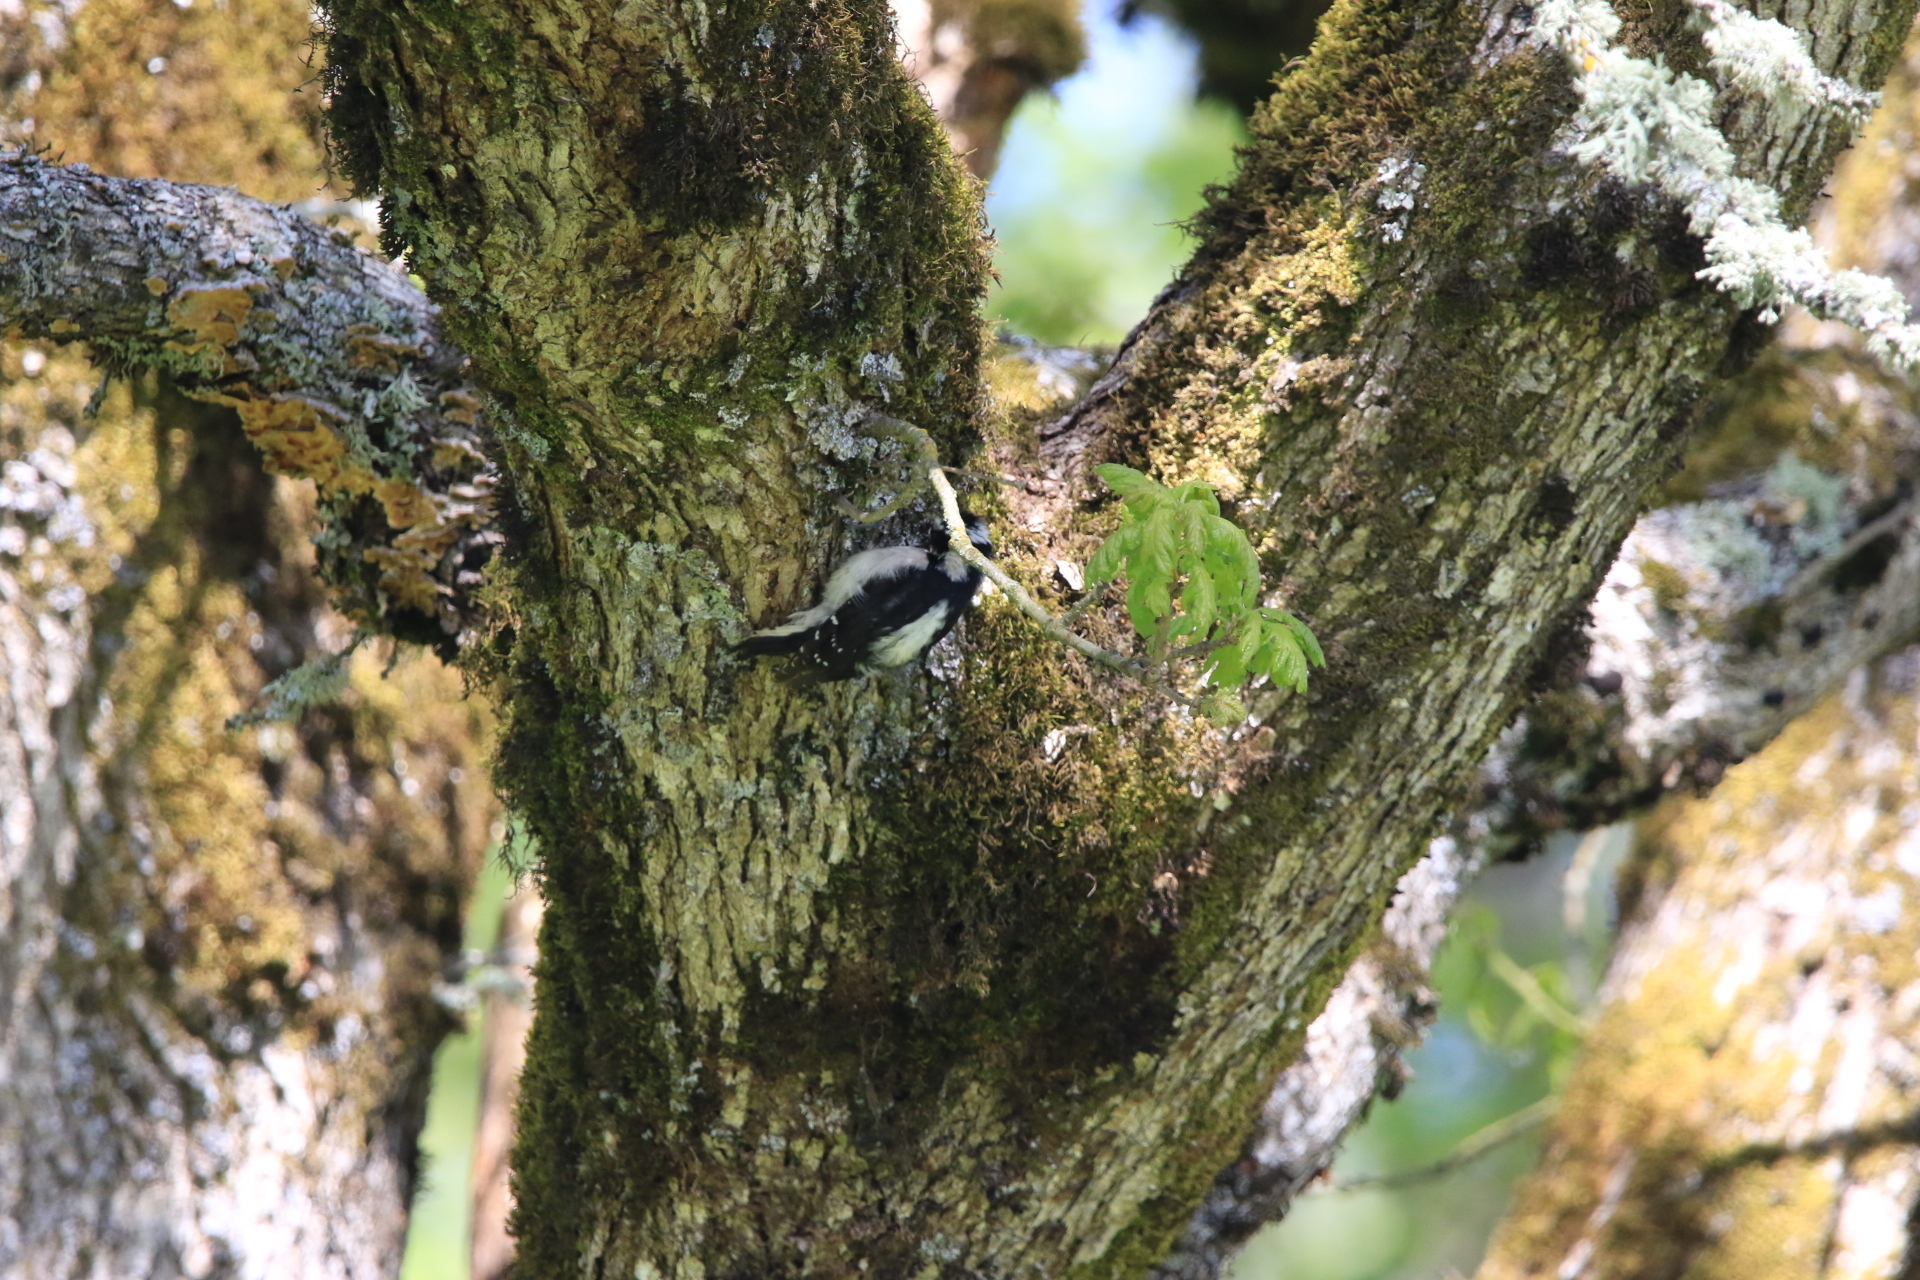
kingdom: Animalia
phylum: Chordata
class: Aves
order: Piciformes
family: Picidae
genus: Dryobates
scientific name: Dryobates pubescens
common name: Downy woodpecker
